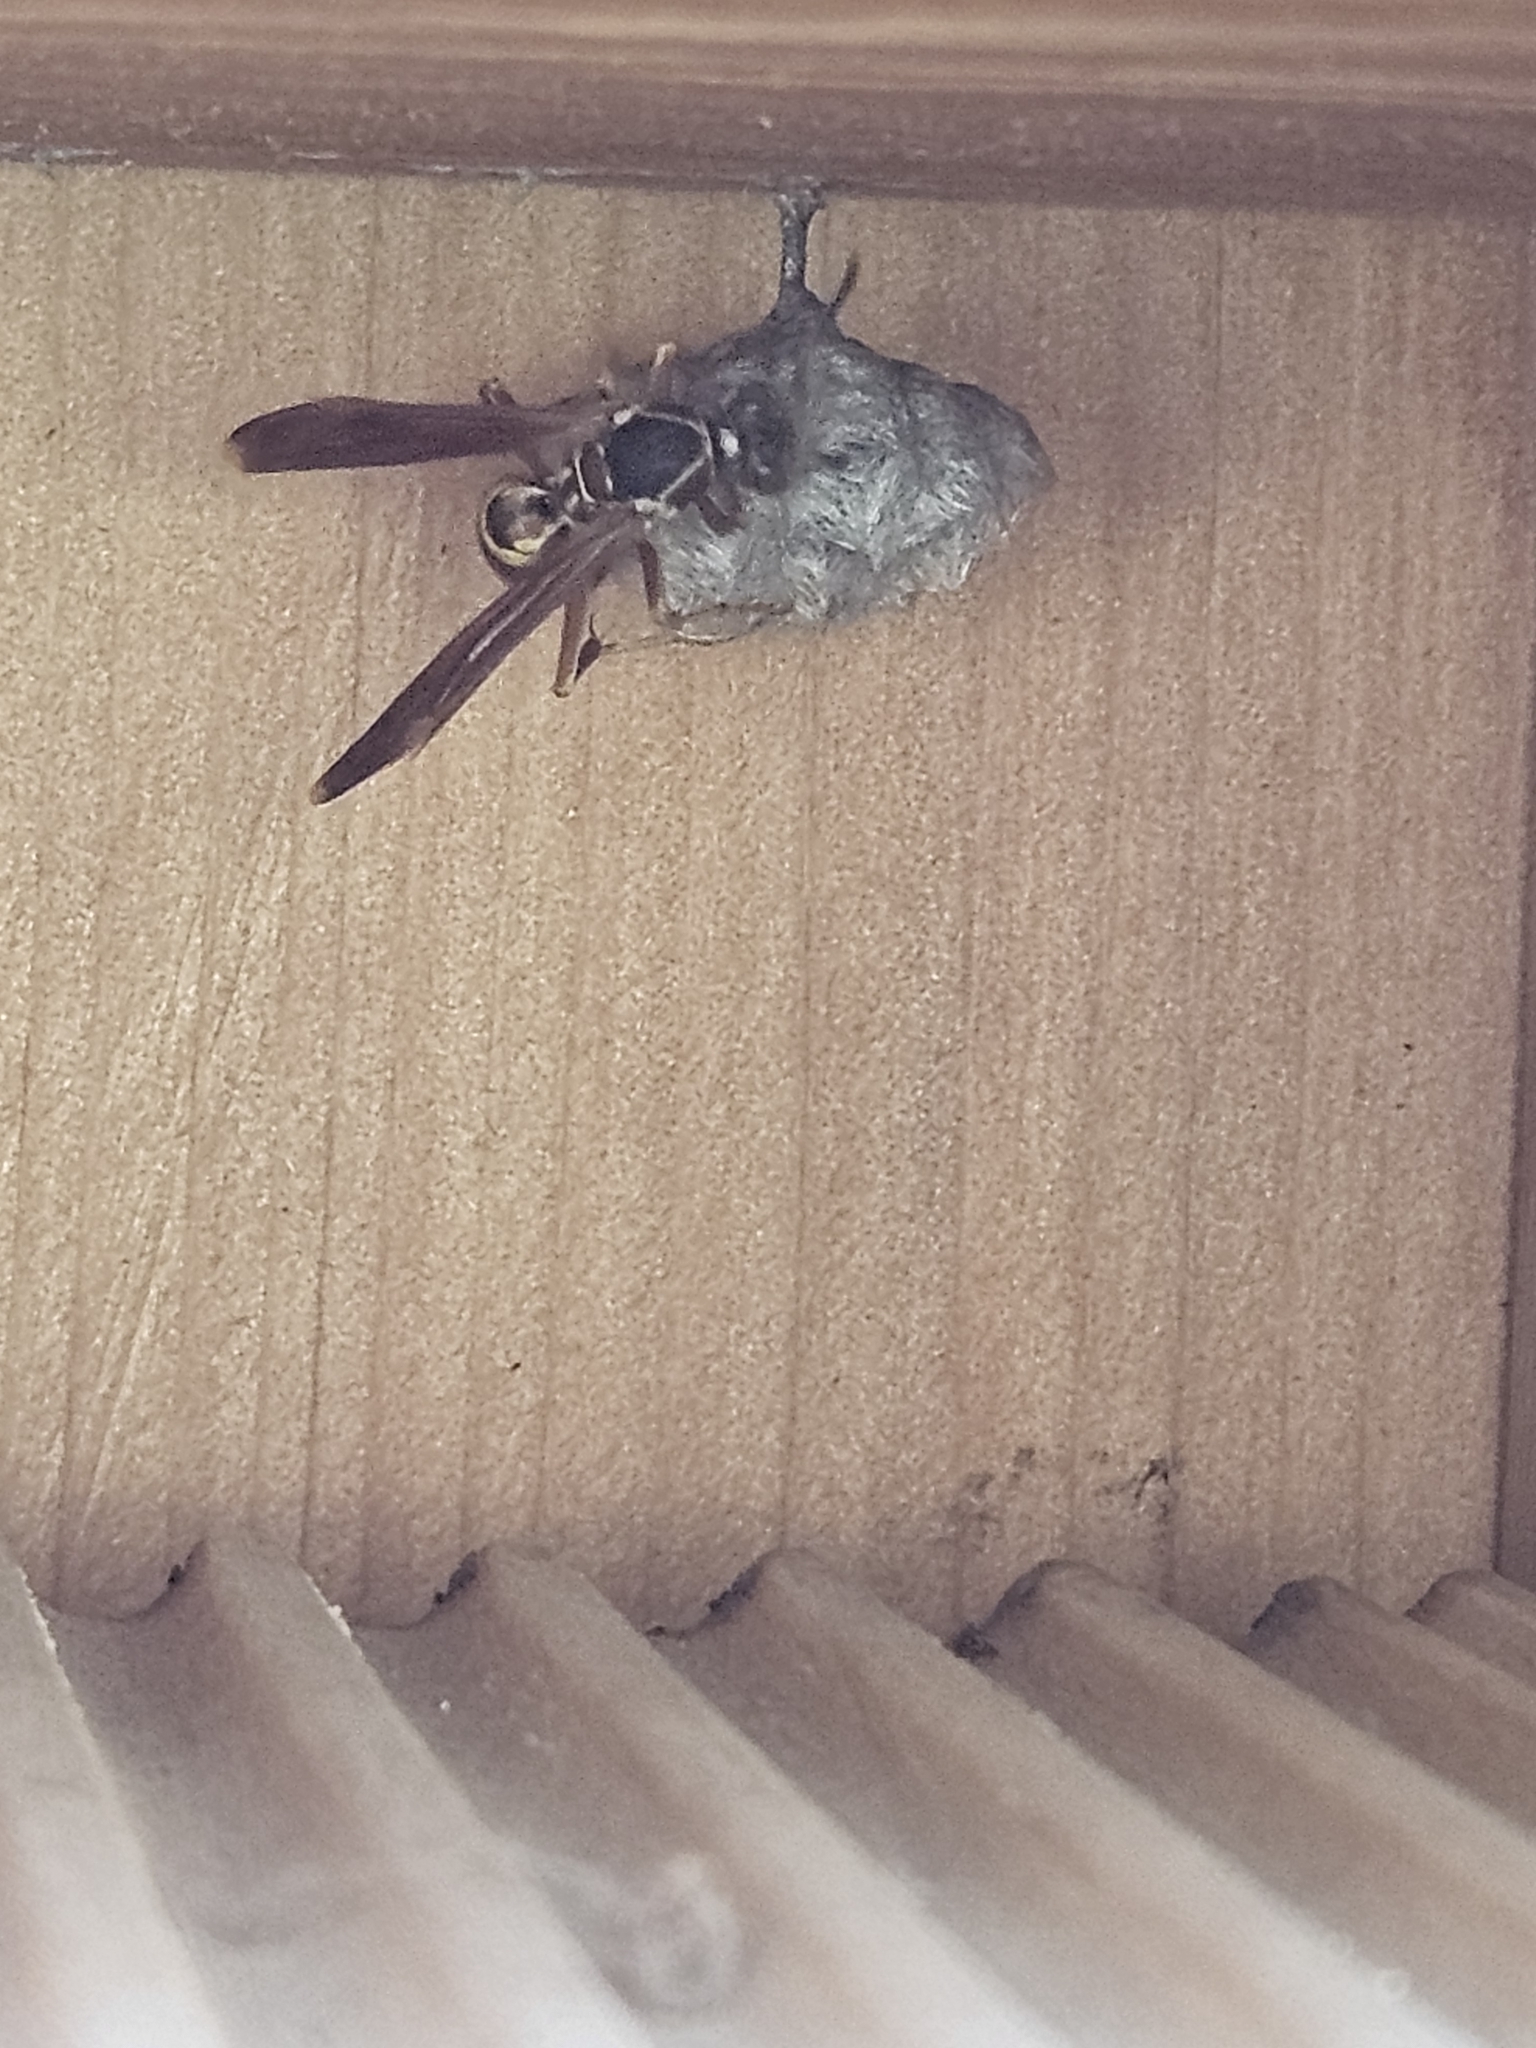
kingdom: Animalia
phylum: Arthropoda
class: Insecta
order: Hymenoptera
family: Eumenidae
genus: Polistes
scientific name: Polistes fuscatus
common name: Dark paper wasp
